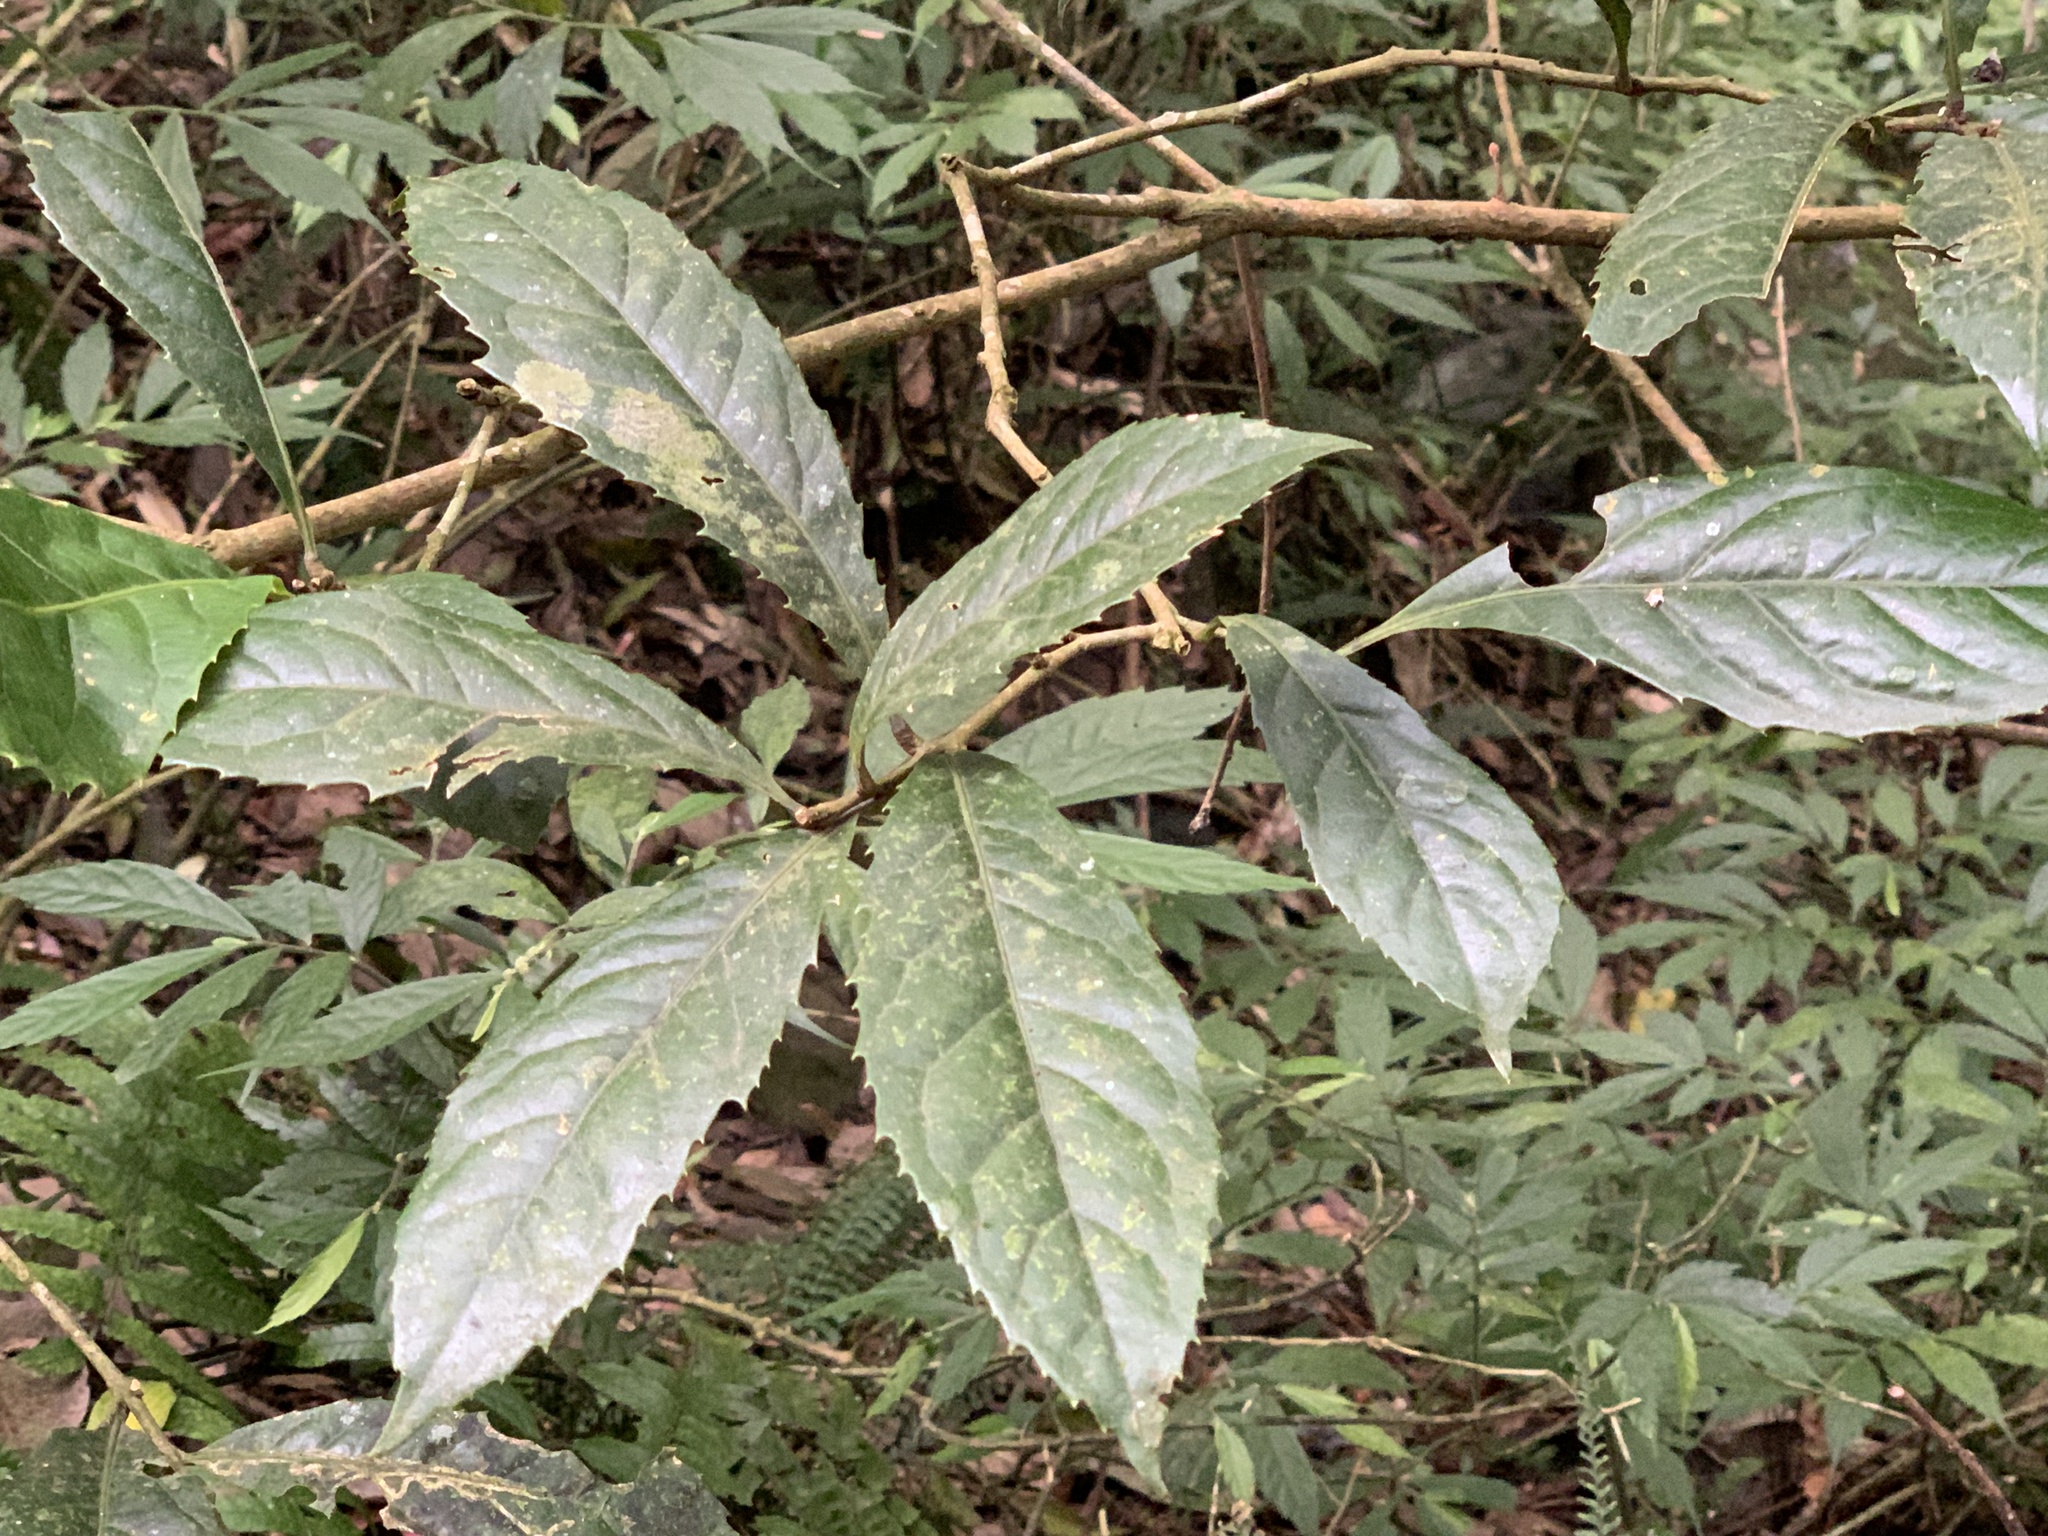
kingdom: Plantae
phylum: Tracheophyta
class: Magnoliopsida
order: Proteales
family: Proteaceae
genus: Helicia
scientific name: Helicia formosana
